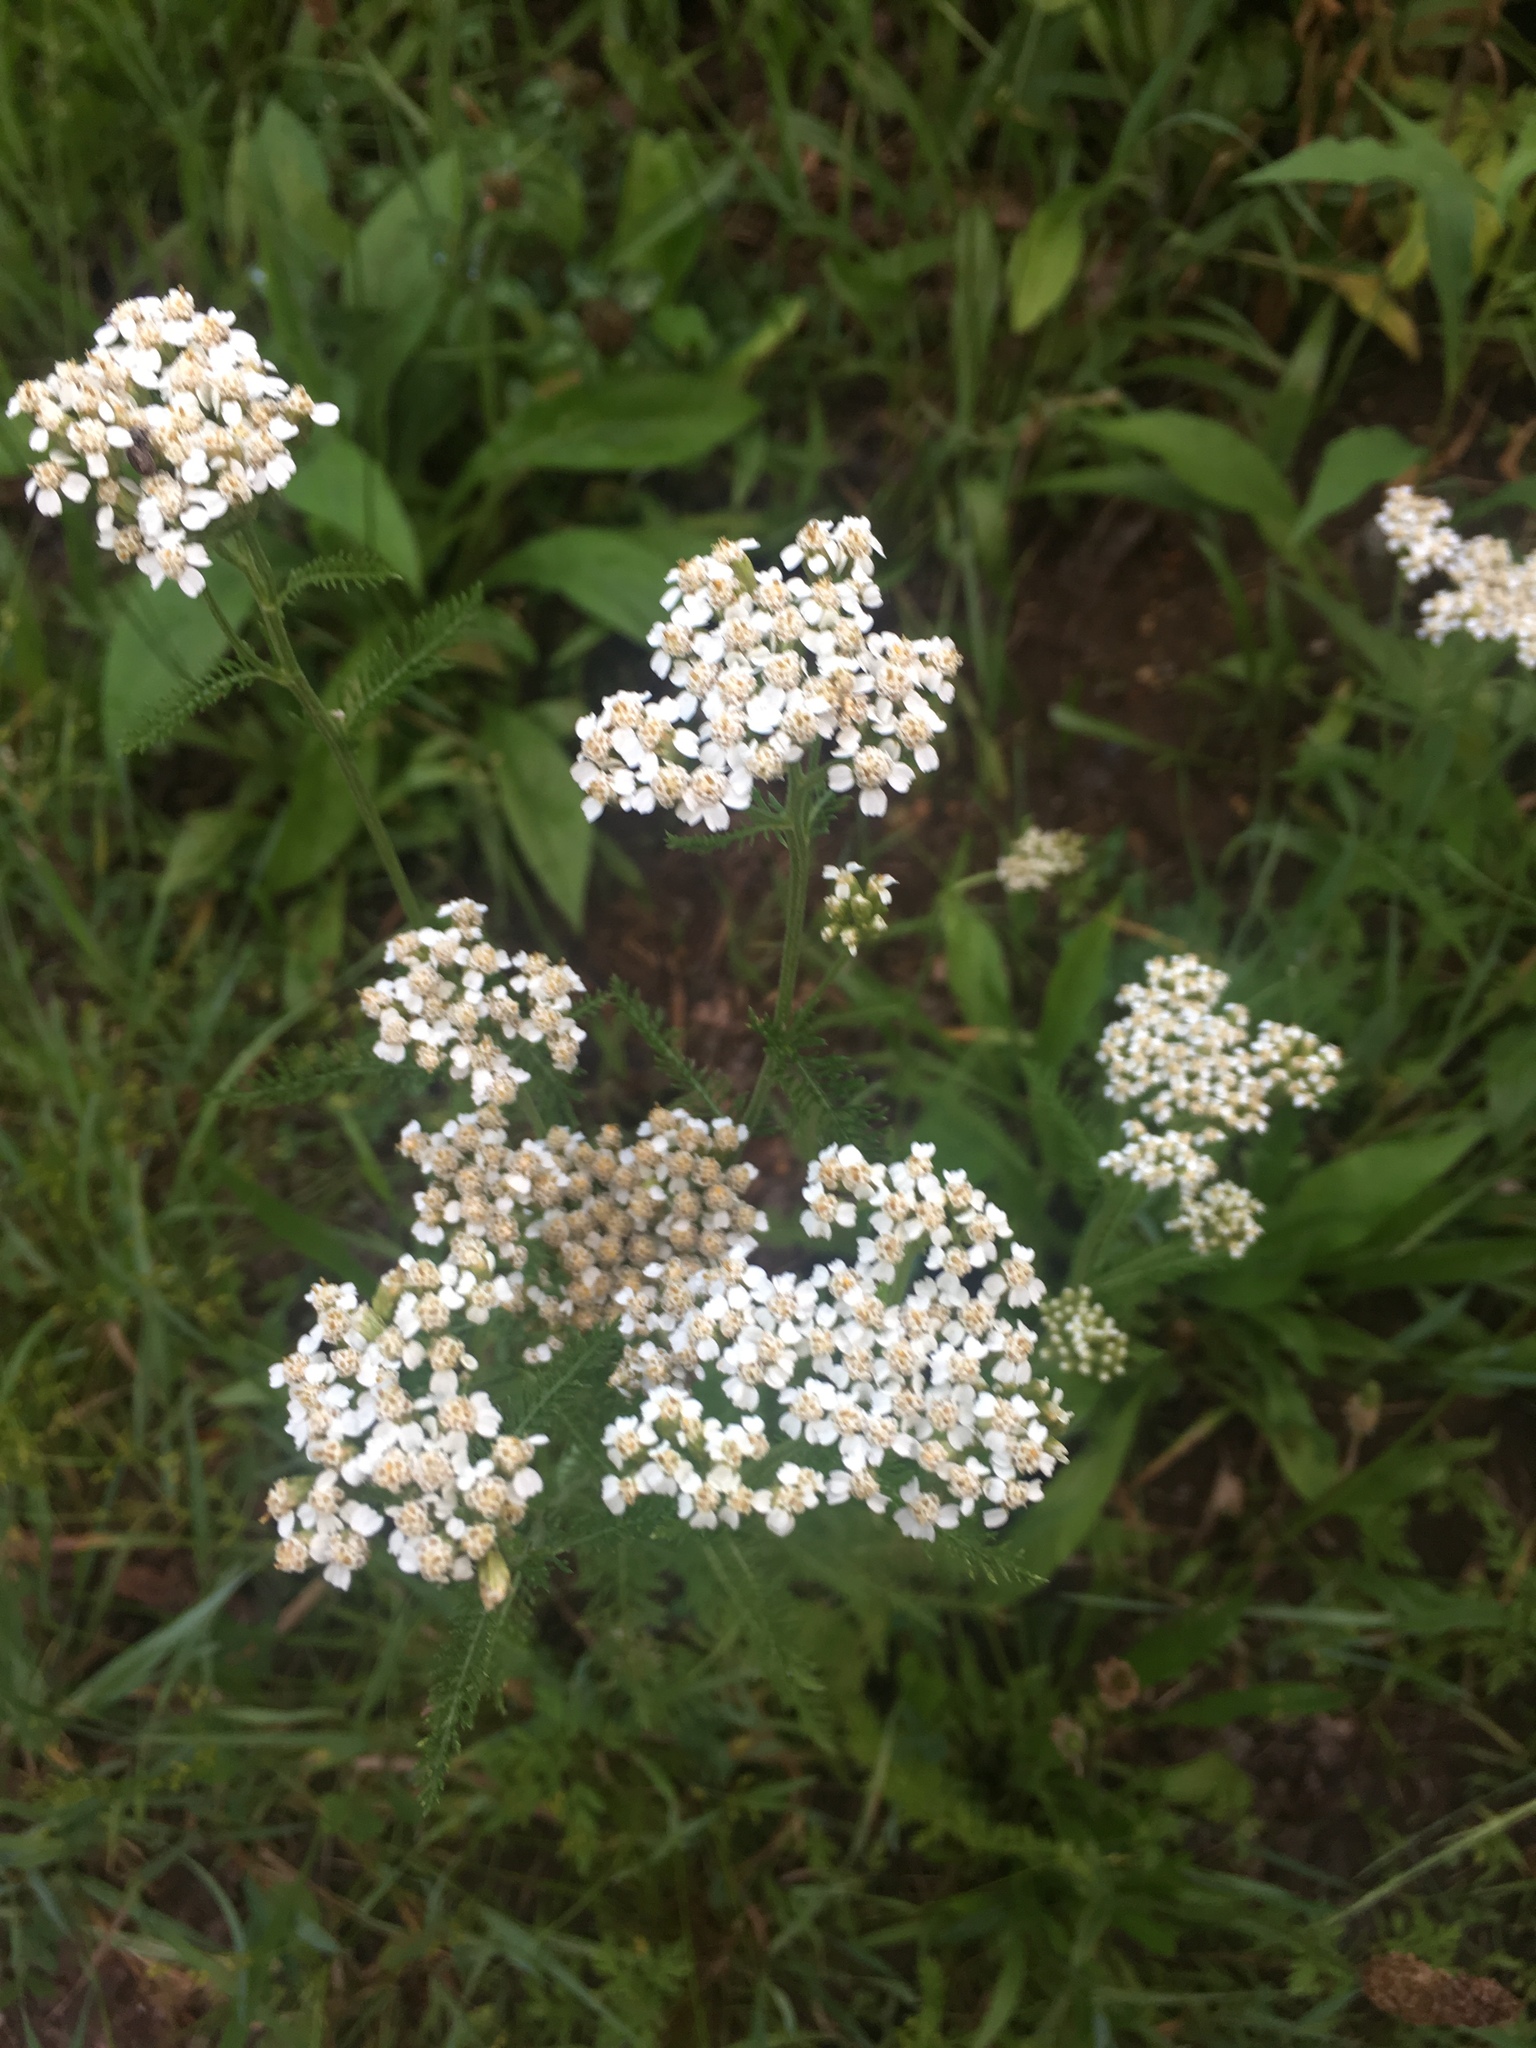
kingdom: Plantae
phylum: Tracheophyta
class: Magnoliopsida
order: Asterales
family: Asteraceae
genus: Achillea
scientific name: Achillea millefolium
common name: Yarrow
